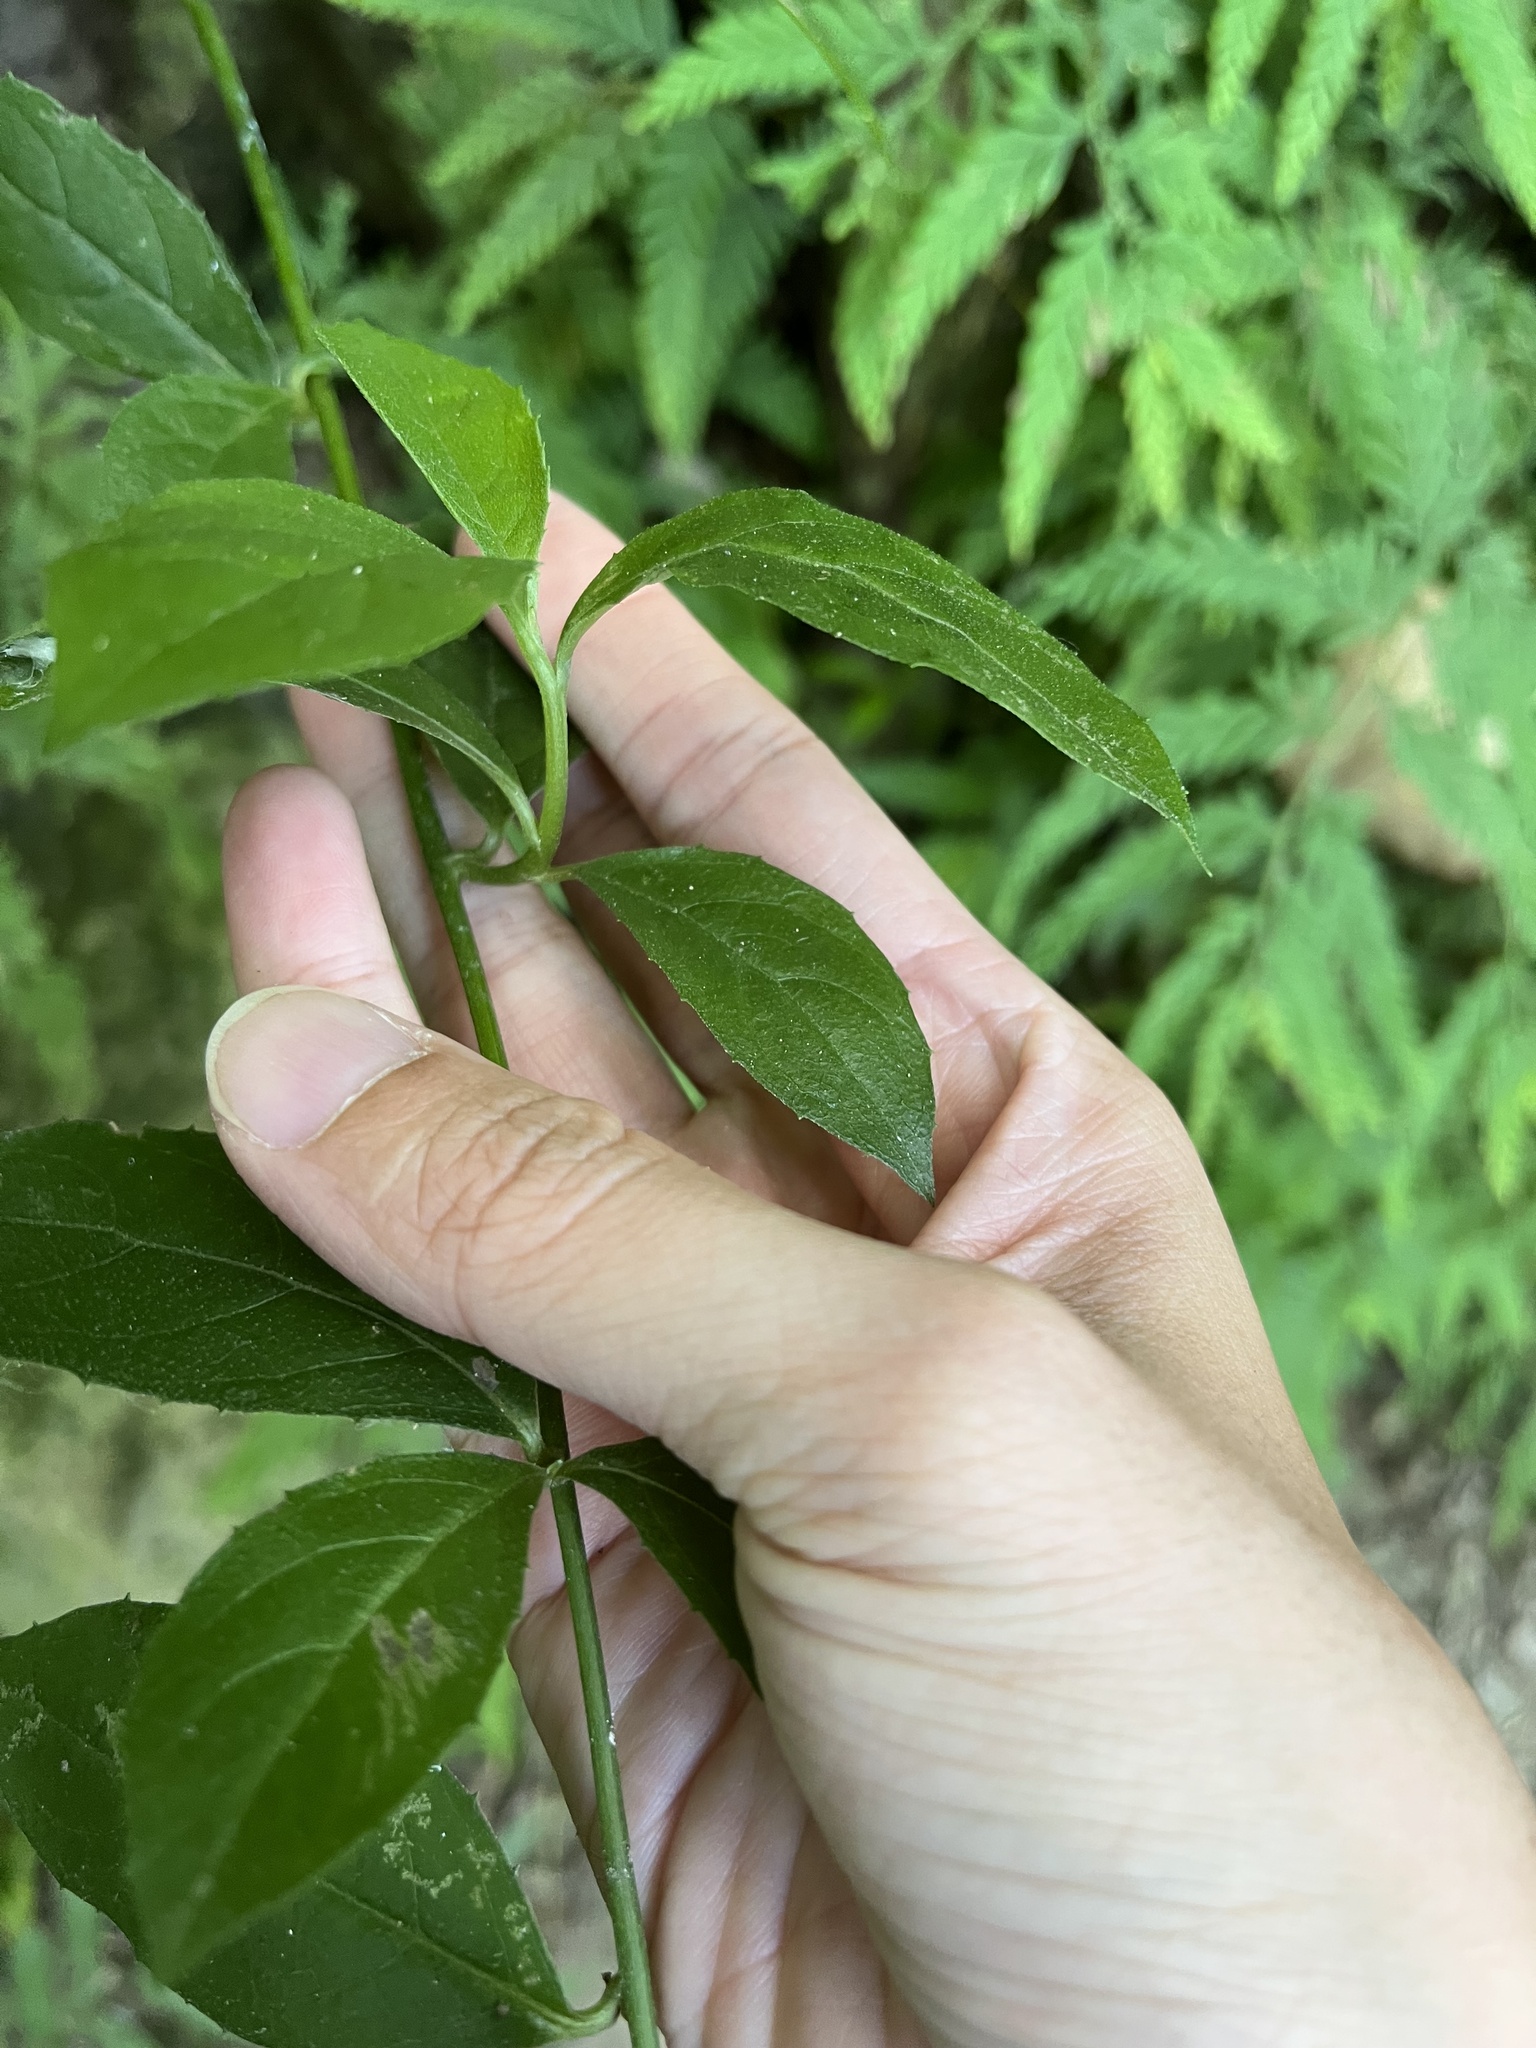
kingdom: Plantae
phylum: Tracheophyta
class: Magnoliopsida
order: Asterales
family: Asteraceae
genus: Blumea
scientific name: Blumea megacephala
